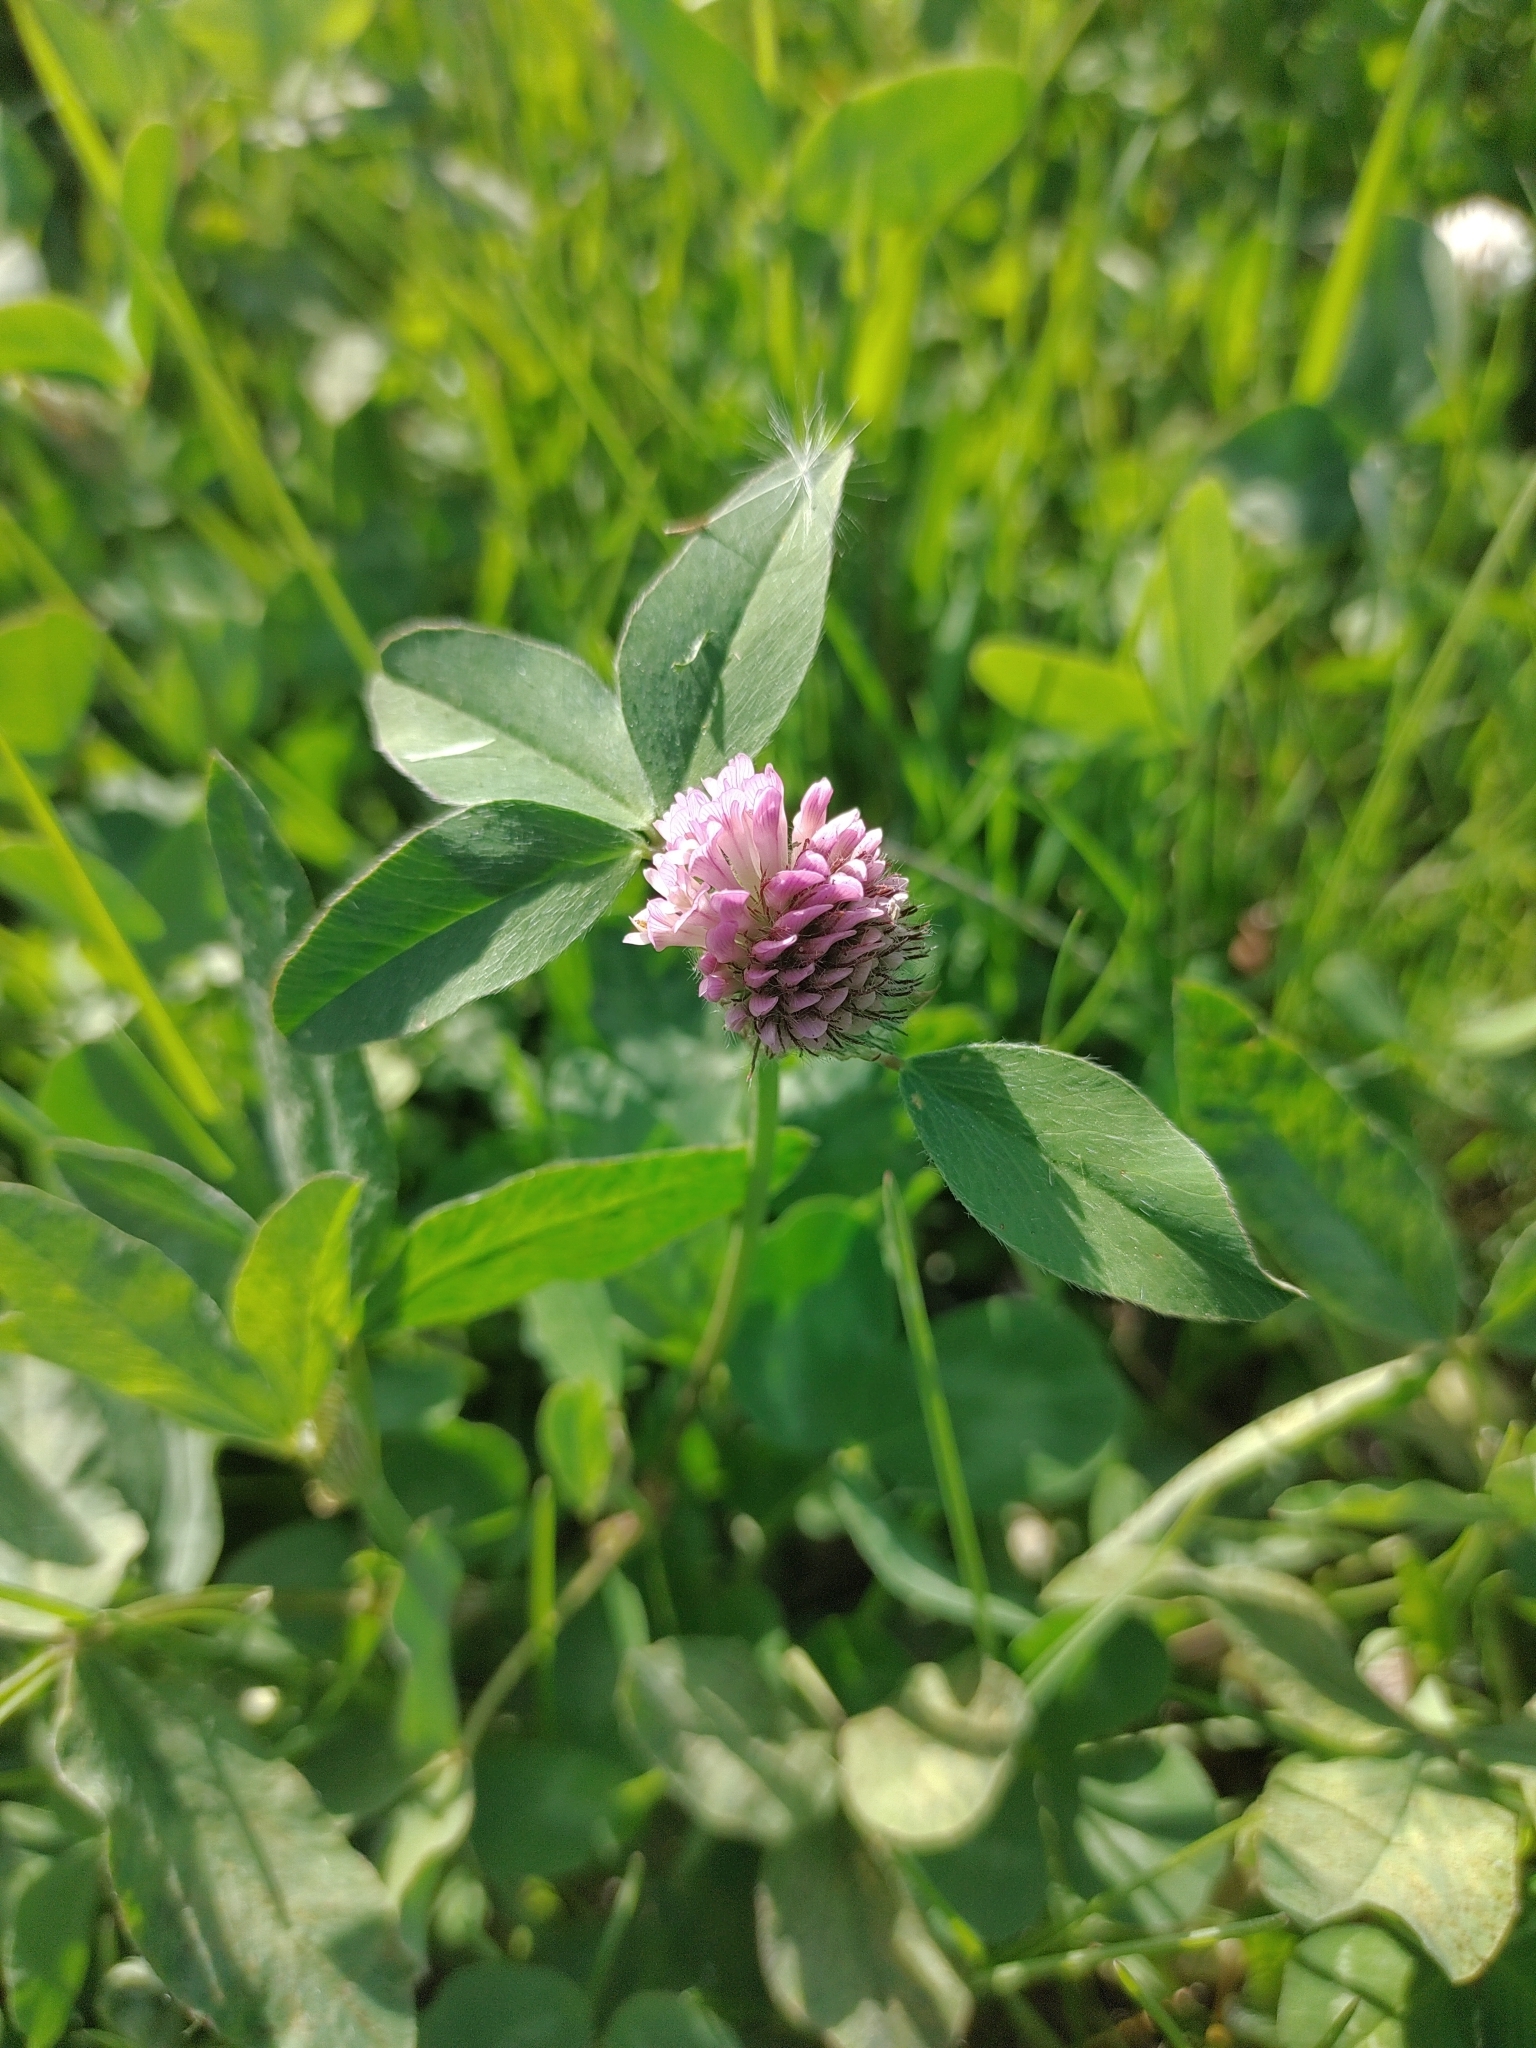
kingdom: Plantae
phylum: Tracheophyta
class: Magnoliopsida
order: Fabales
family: Fabaceae
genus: Trifolium
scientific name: Trifolium pratense
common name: Red clover
